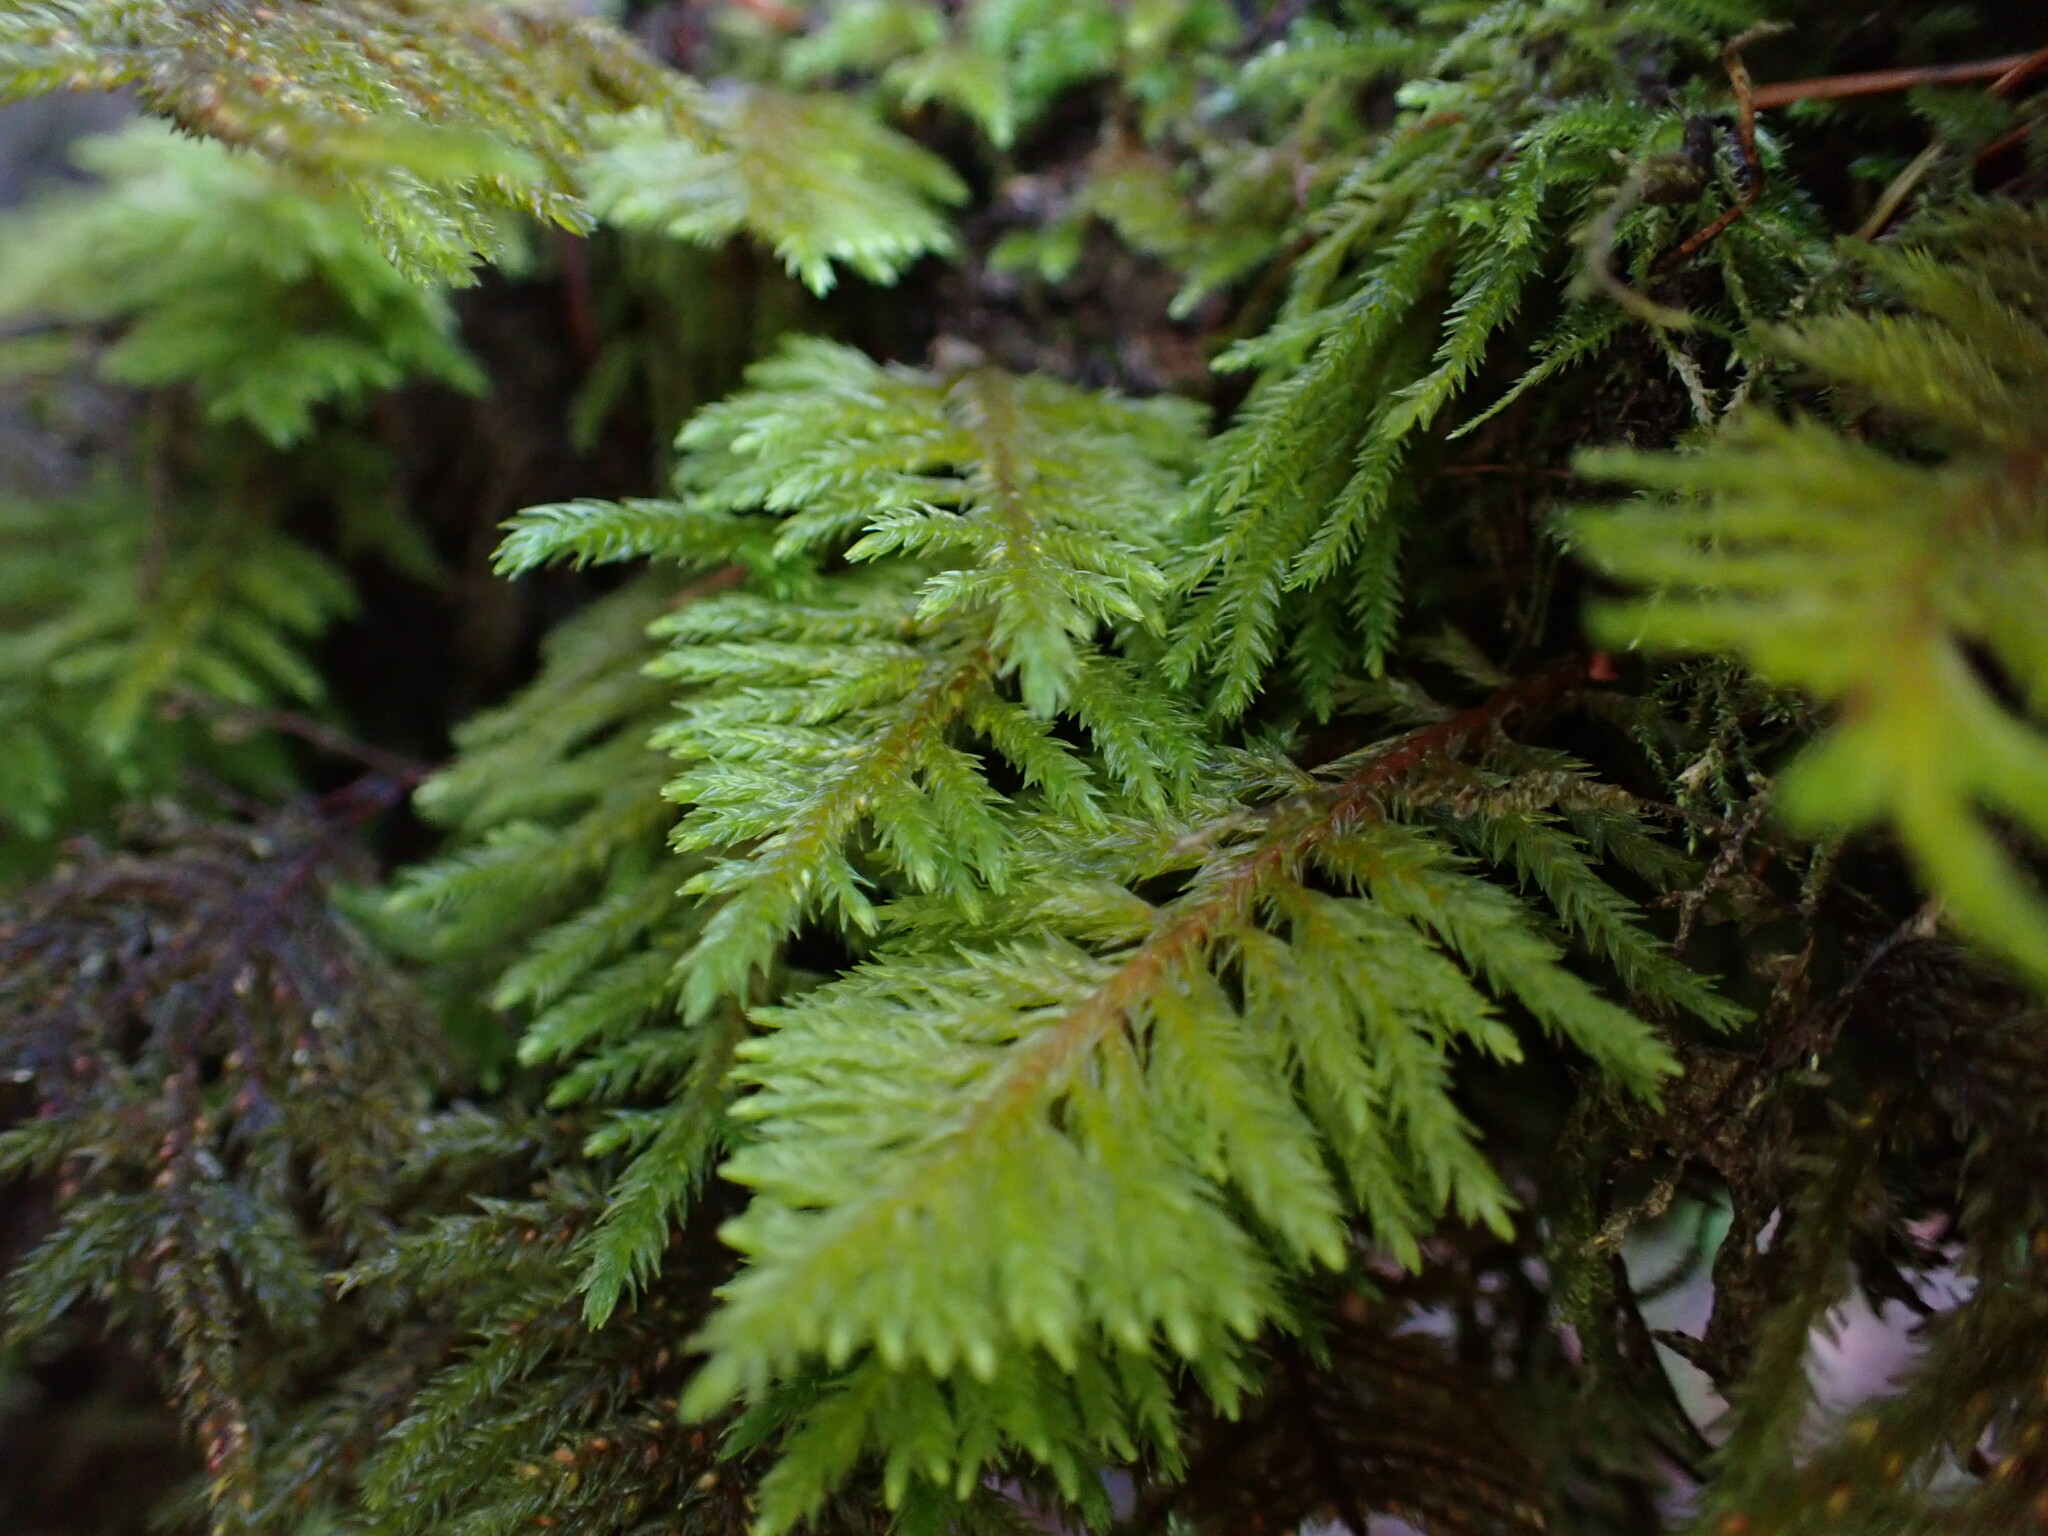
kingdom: Plantae
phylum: Bryophyta
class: Bryopsida
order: Hypnales
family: Cryphaeaceae
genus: Dendroalsia
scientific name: Dendroalsia abietina
